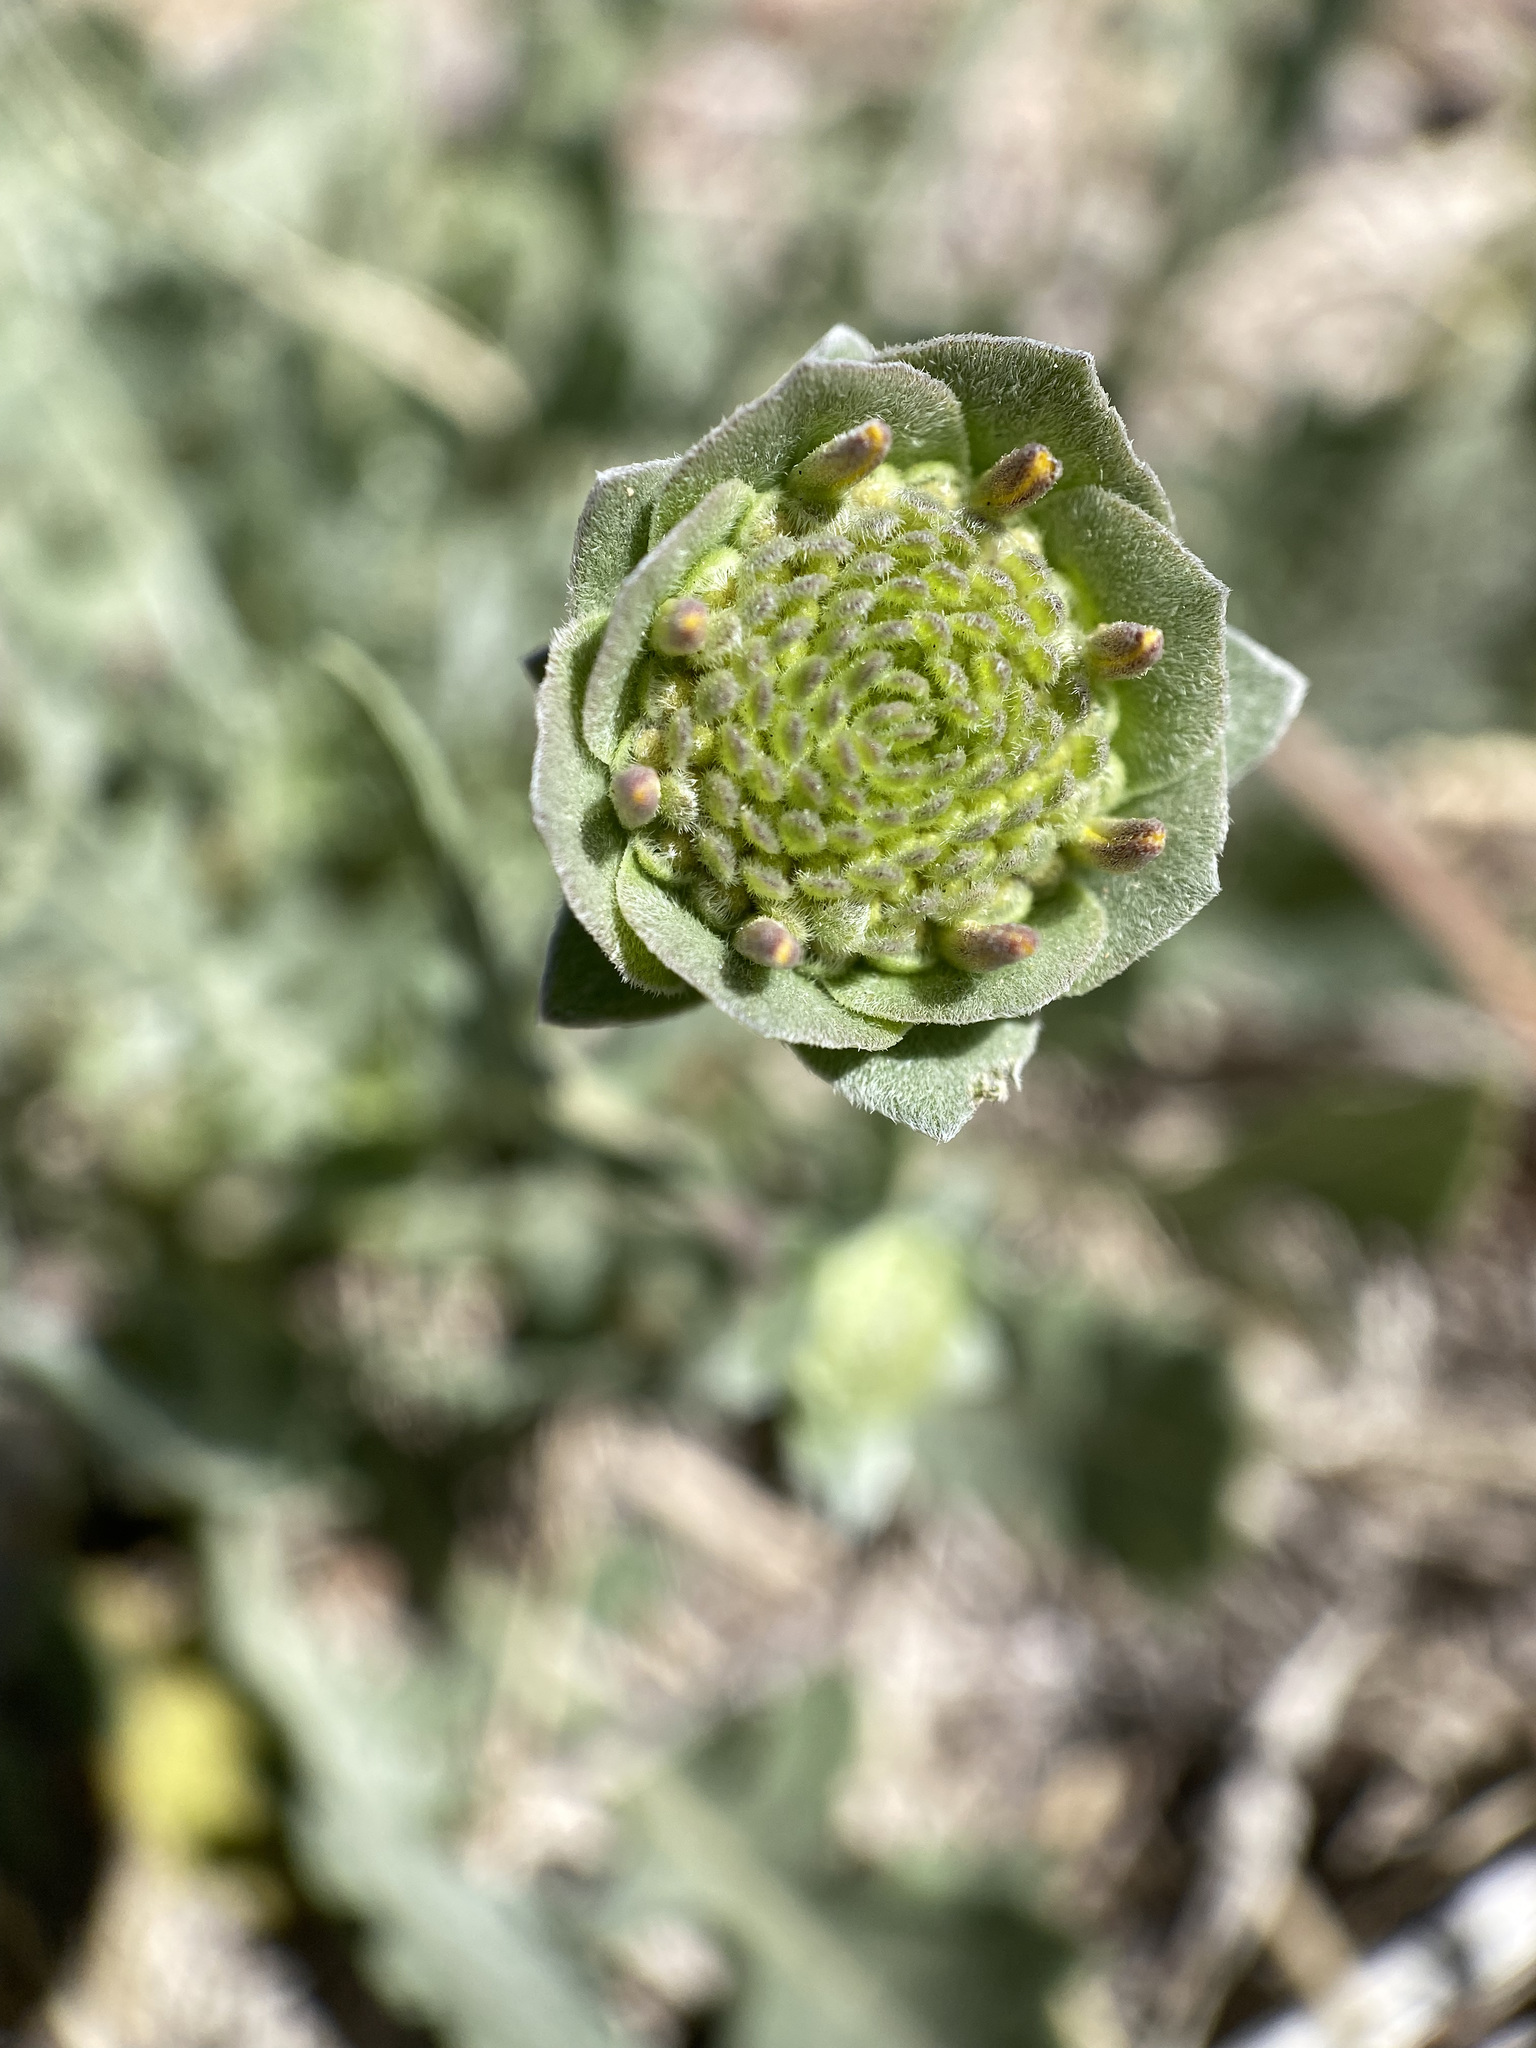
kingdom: Plantae
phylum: Tracheophyta
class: Magnoliopsida
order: Asterales
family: Asteraceae
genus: Berlandiera
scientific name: Berlandiera lyrata
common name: Chocolate-flower
